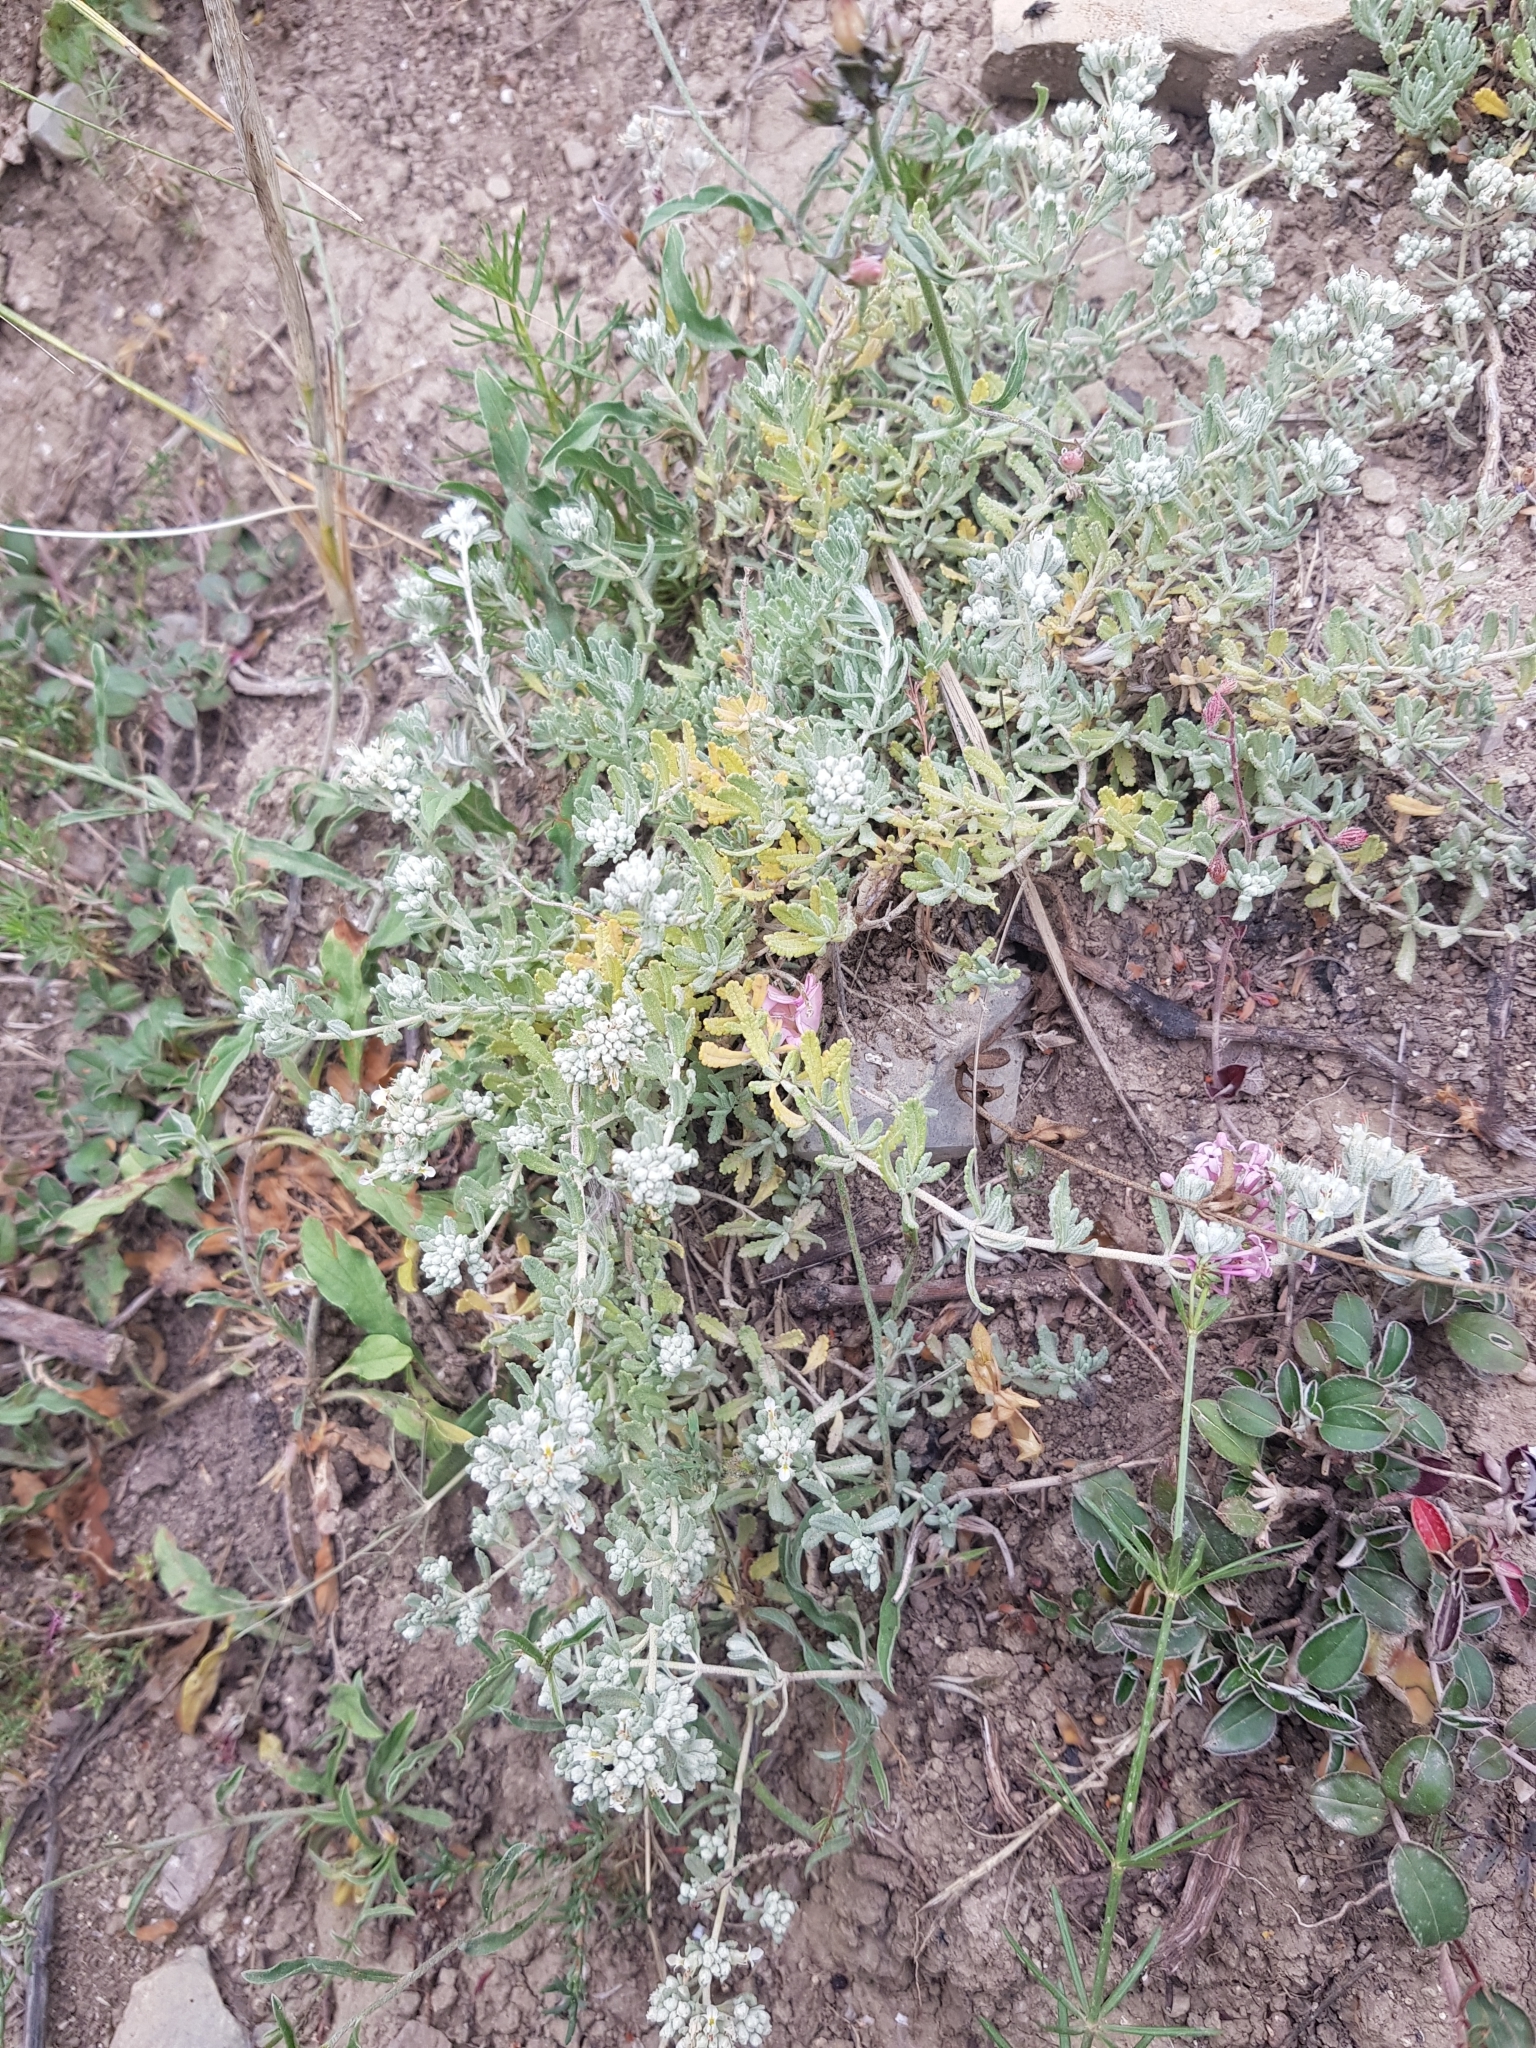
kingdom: Plantae
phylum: Tracheophyta
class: Magnoliopsida
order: Lamiales
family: Lamiaceae
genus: Teucrium
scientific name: Teucrium capitatum
